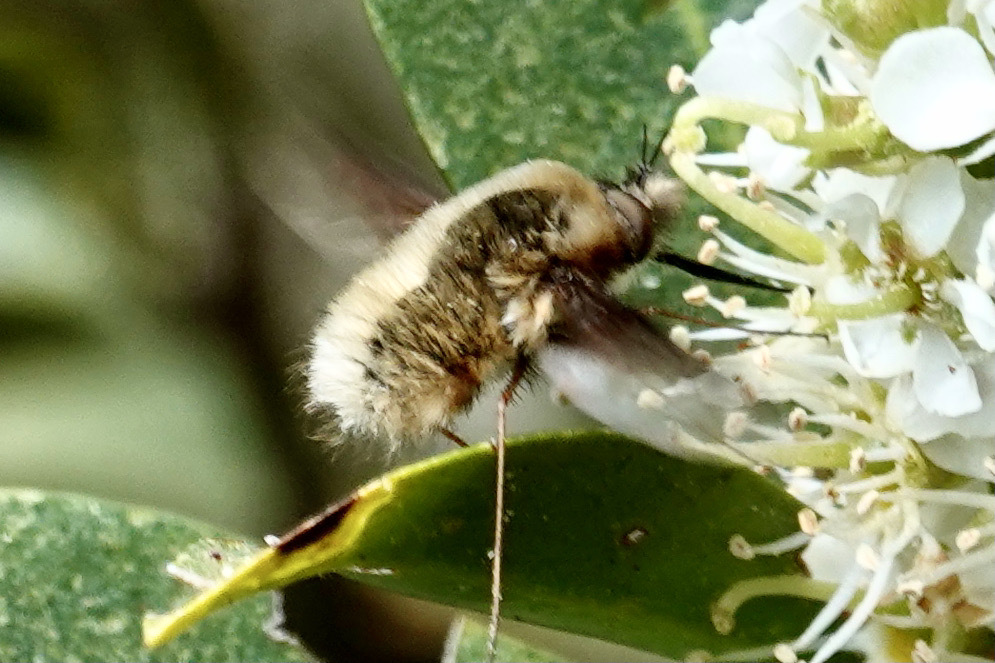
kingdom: Animalia
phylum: Arthropoda
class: Insecta
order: Diptera
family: Bombyliidae
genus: Bombylius
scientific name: Bombylius major
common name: Bee fly
